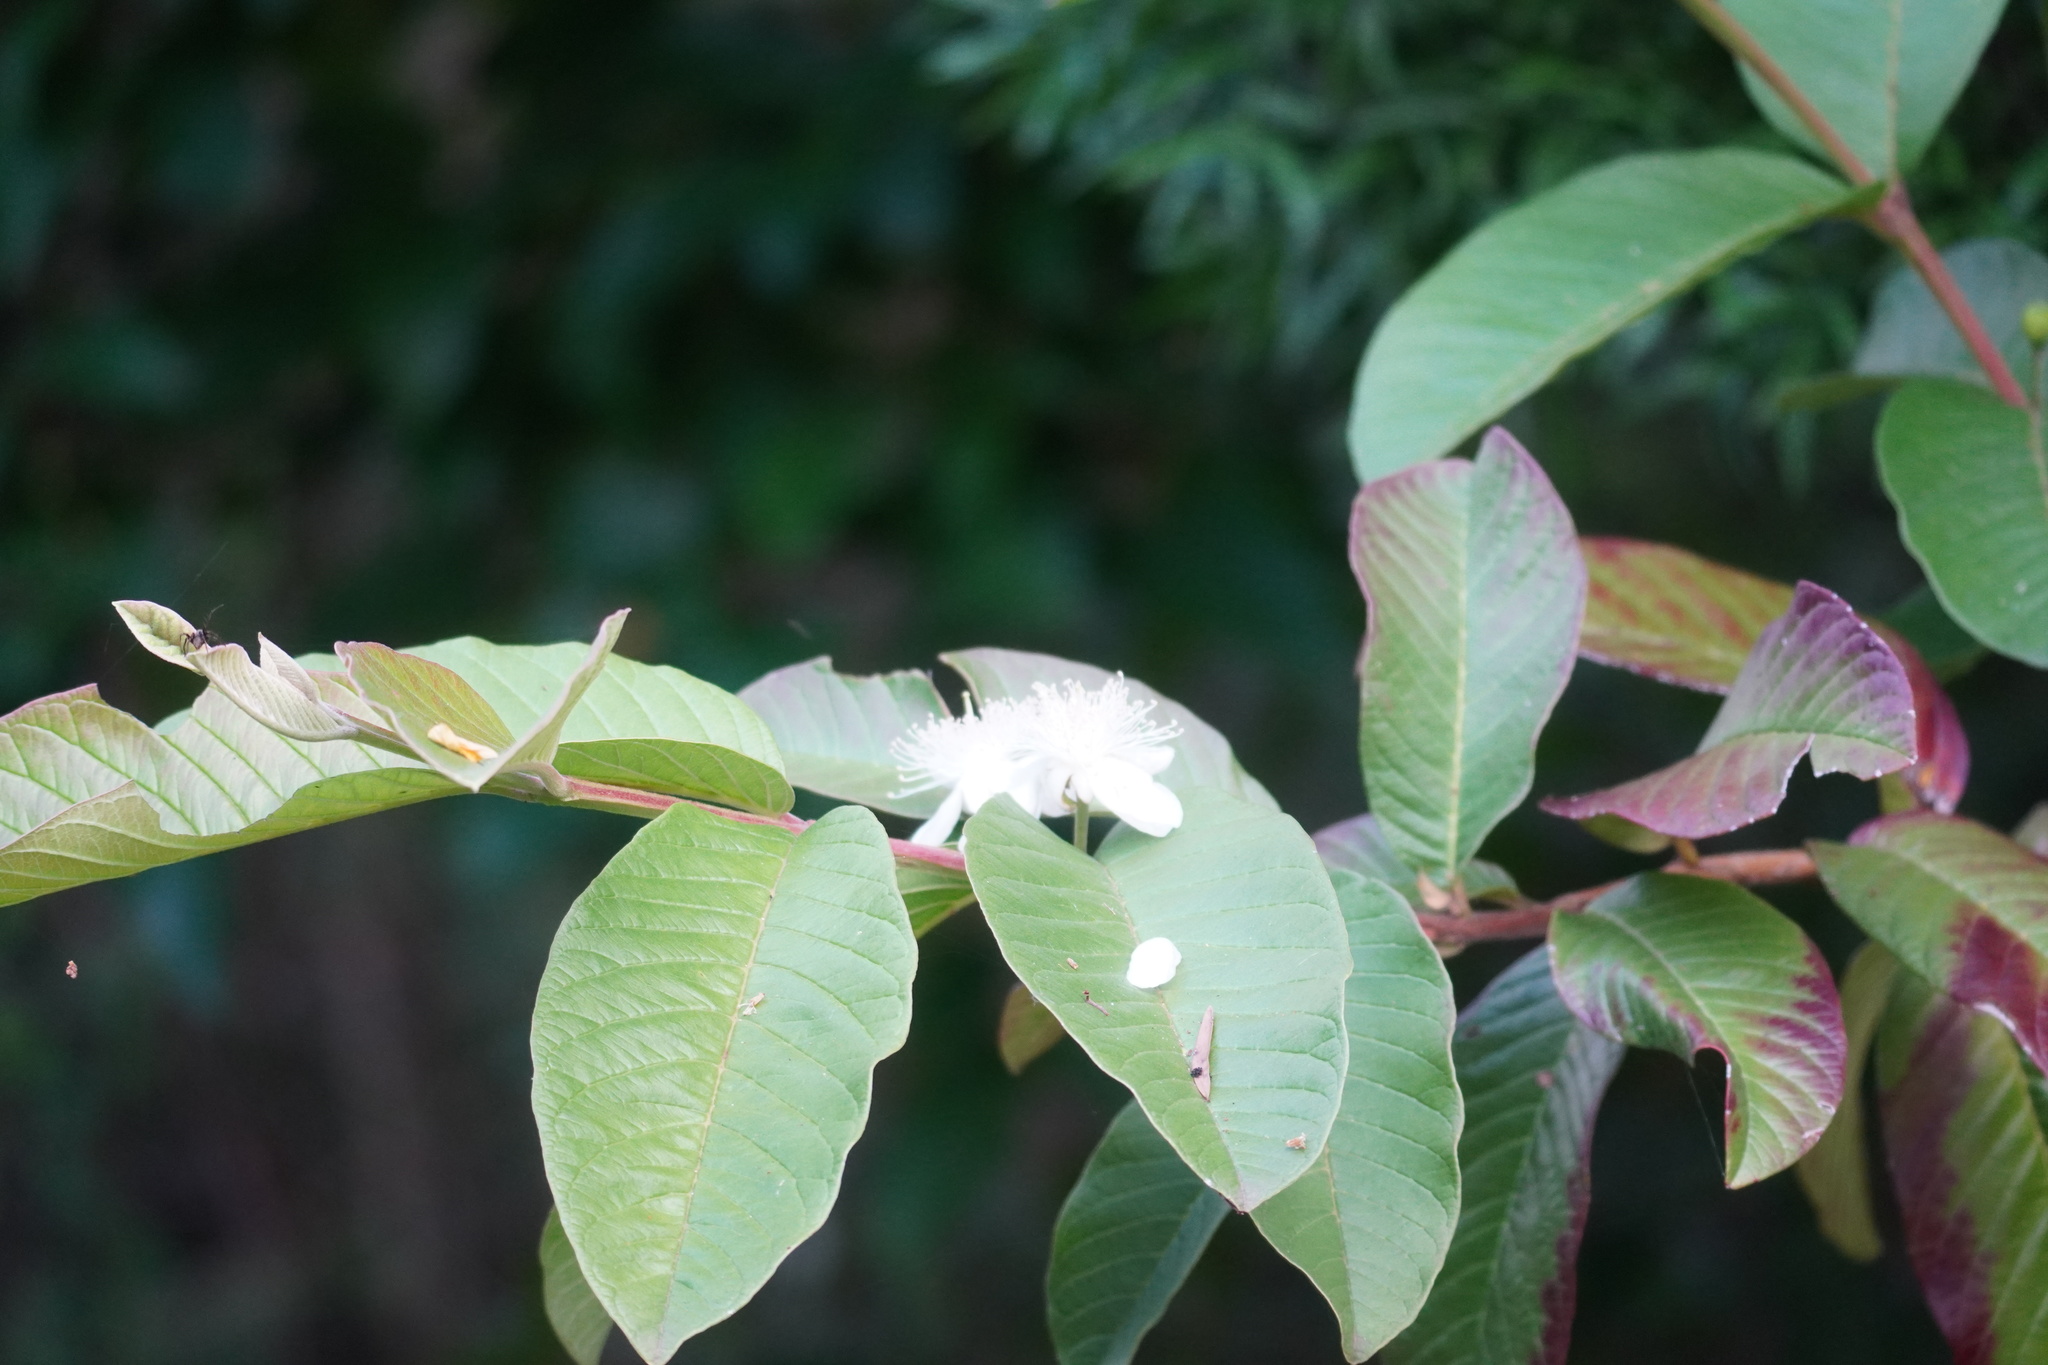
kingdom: Plantae
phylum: Tracheophyta
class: Magnoliopsida
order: Myrtales
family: Myrtaceae
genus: Psidium
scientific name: Psidium guajava
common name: Guava
